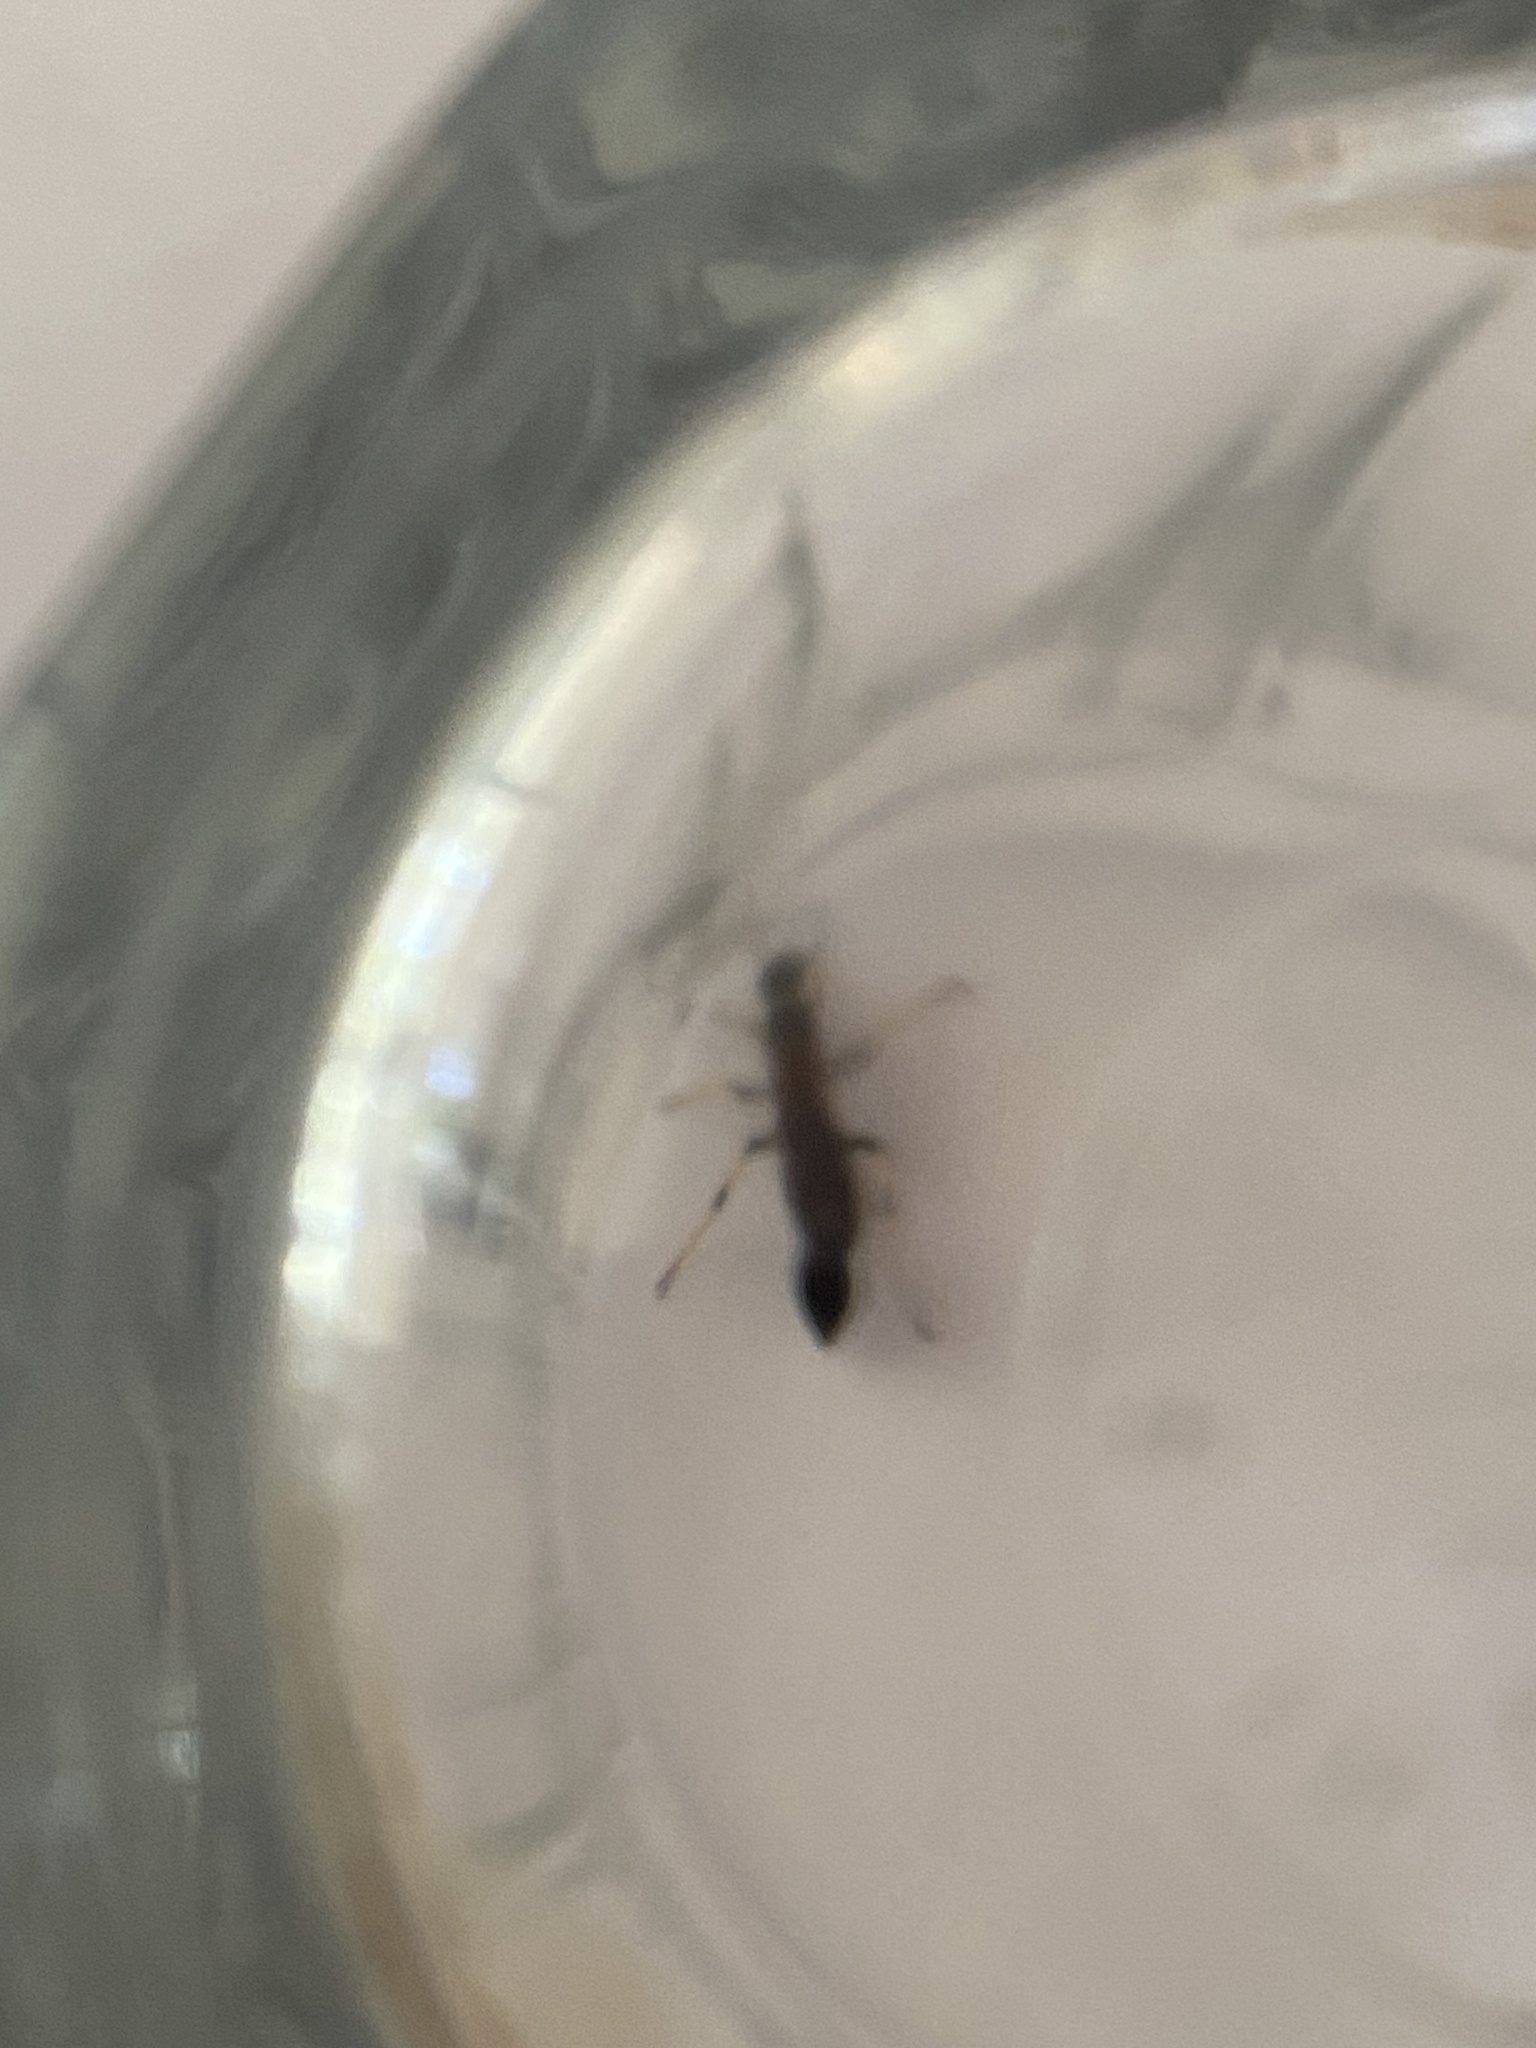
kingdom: Animalia
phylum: Arthropoda
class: Insecta
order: Hymenoptera
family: Sphecidae
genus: Sceliphron
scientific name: Sceliphron caementarium
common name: Mud dauber
